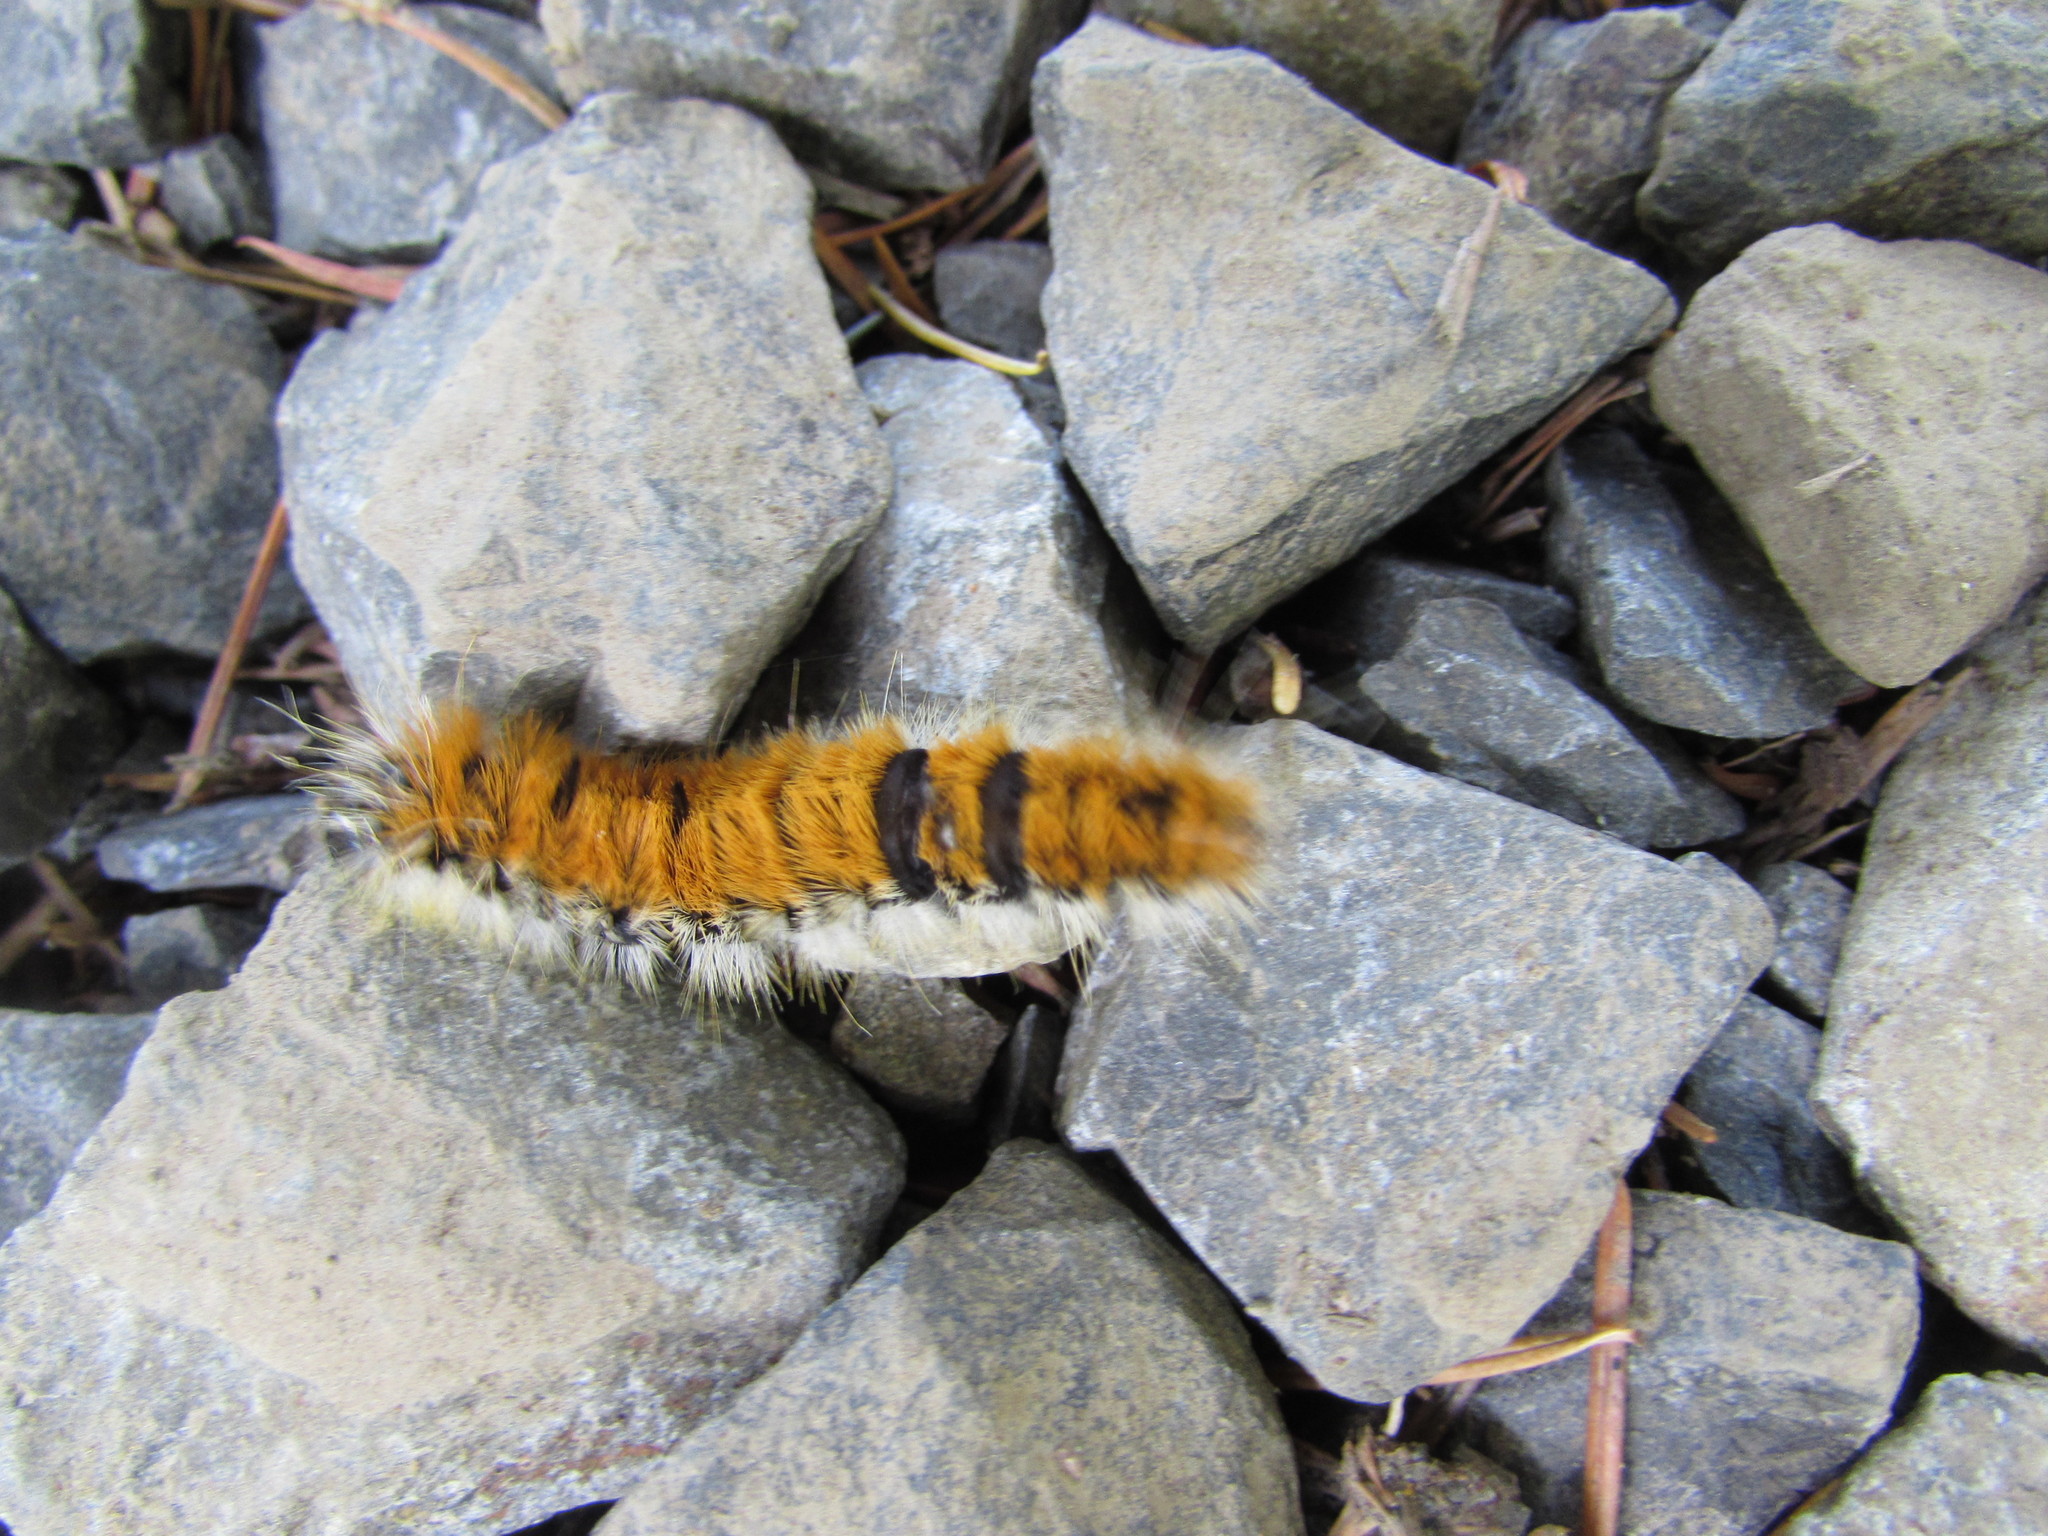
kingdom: Animalia
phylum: Arthropoda
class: Insecta
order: Lepidoptera
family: Noctuidae
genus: Acronicta
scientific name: Acronicta insita
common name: Large gray dagger
